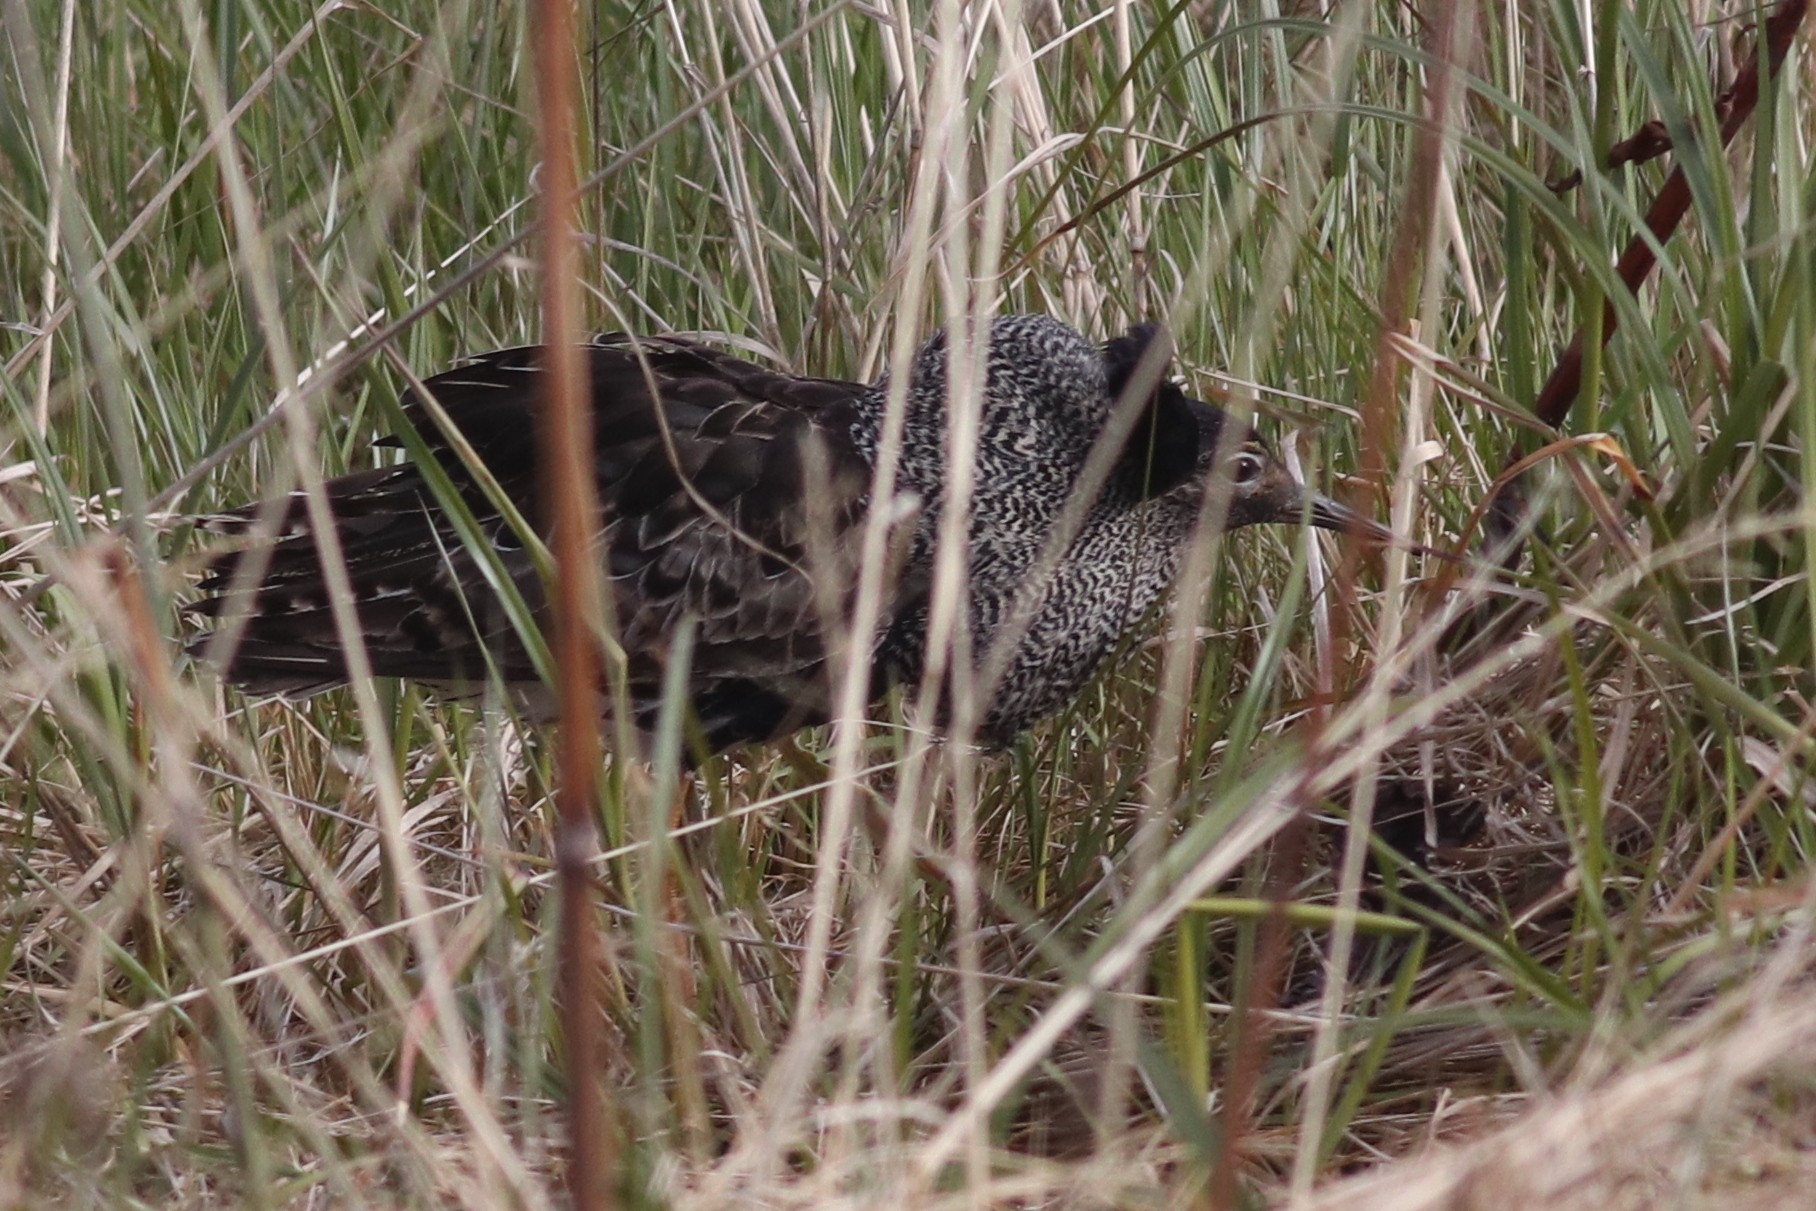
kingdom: Animalia
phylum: Chordata
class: Aves
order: Charadriiformes
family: Scolopacidae
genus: Calidris
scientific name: Calidris pugnax
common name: Ruff
